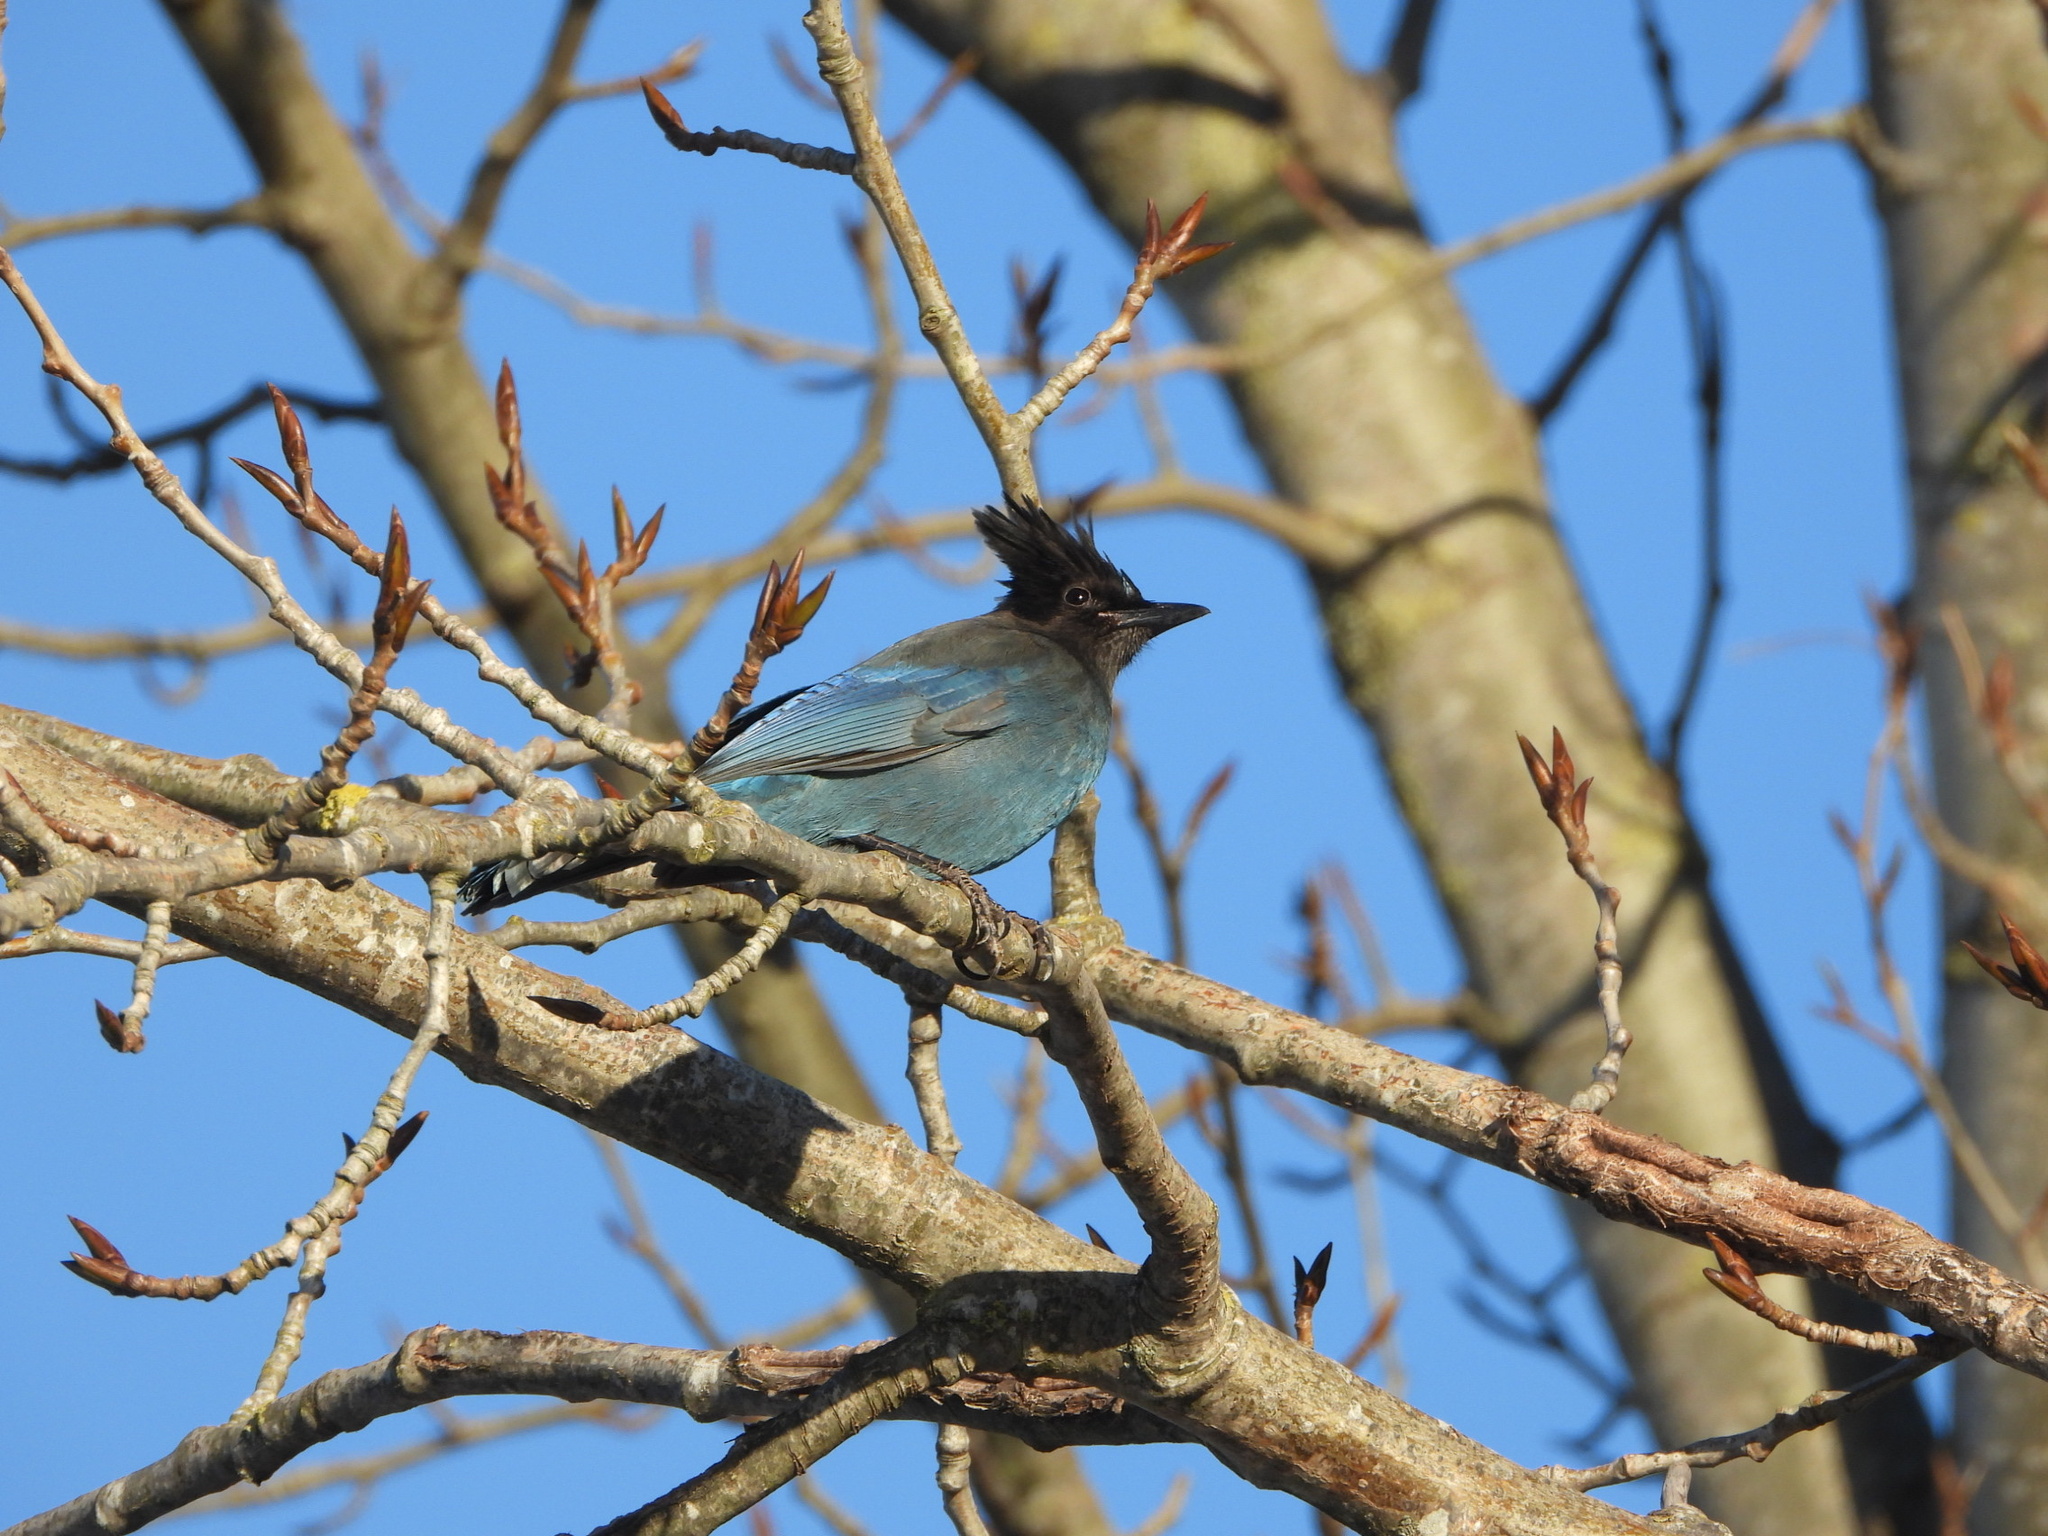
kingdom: Animalia
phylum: Chordata
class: Aves
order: Passeriformes
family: Corvidae
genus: Cyanocitta
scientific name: Cyanocitta stelleri
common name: Steller's jay
